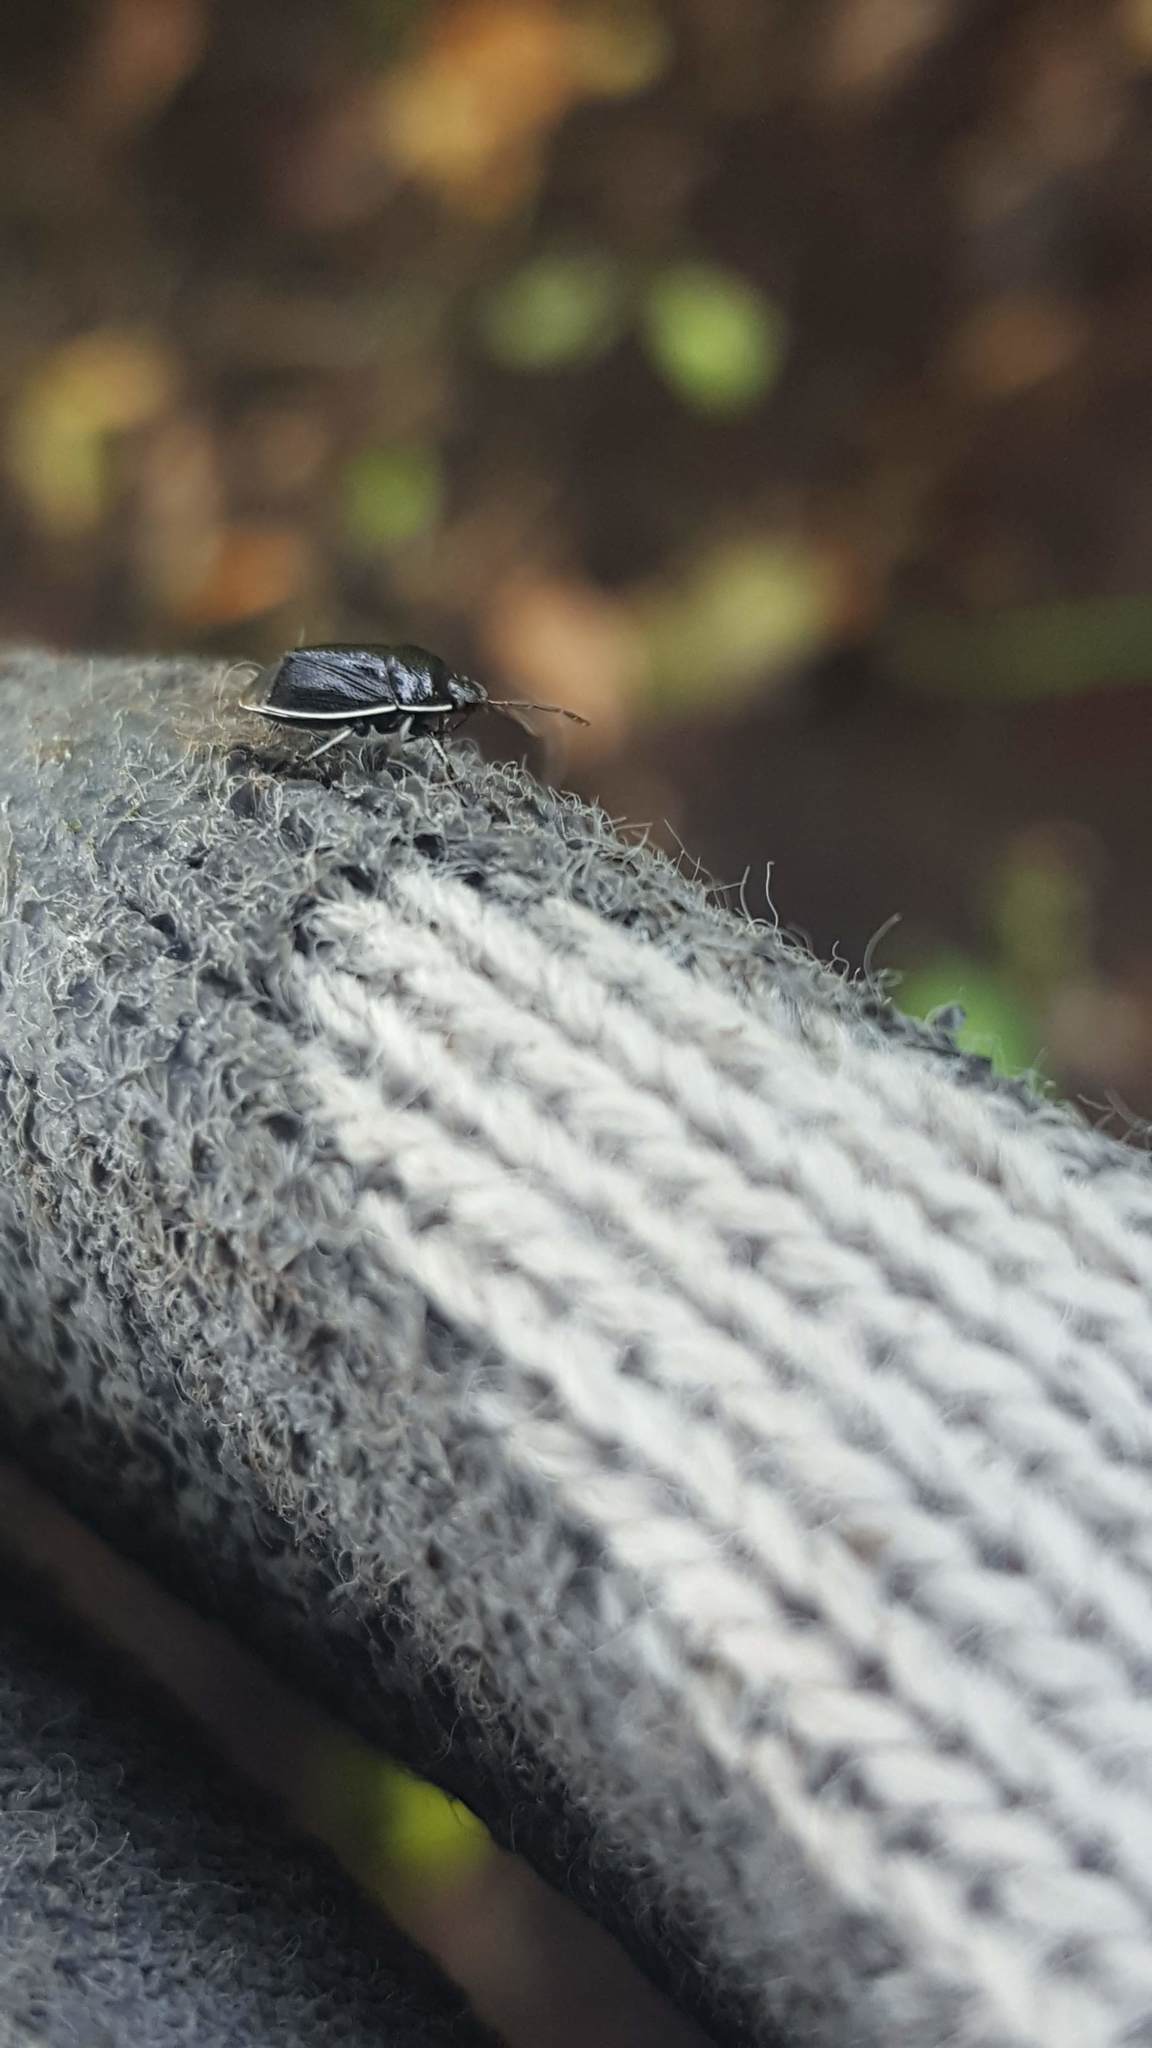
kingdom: Animalia
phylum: Arthropoda
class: Insecta
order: Hemiptera
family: Cydnidae
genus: Sehirus
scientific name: Sehirus cinctus
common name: White-margined burrower bug
